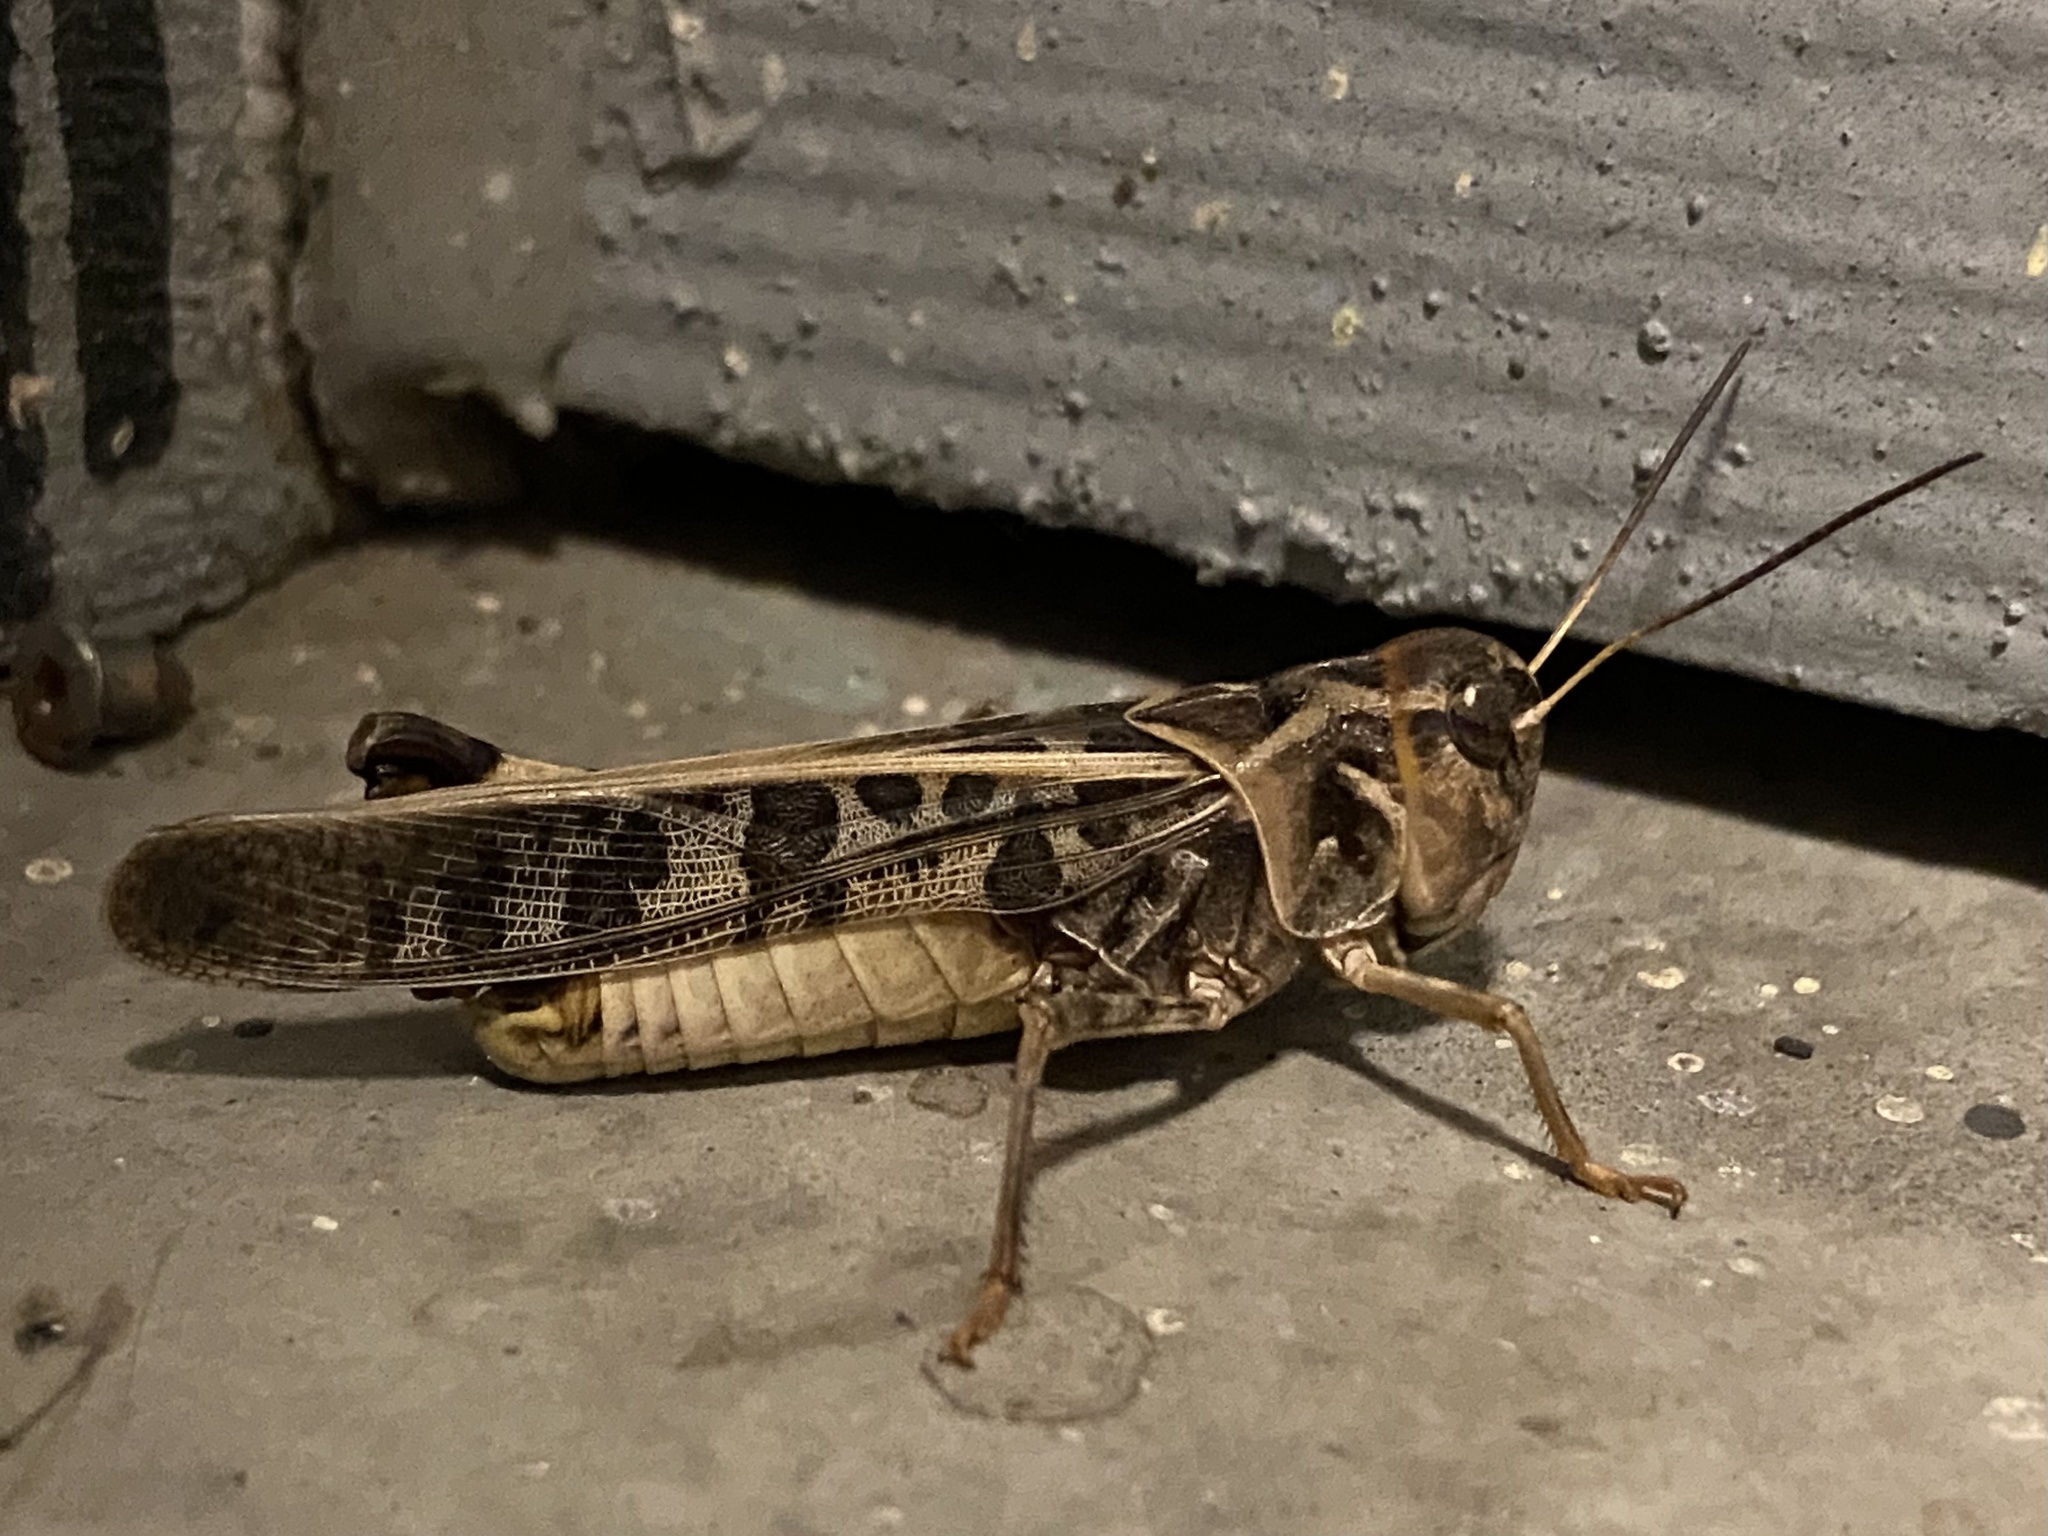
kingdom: Animalia
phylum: Arthropoda
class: Insecta
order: Orthoptera
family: Acrididae
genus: Hippiscus
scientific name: Hippiscus ocelote
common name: Wrinkled grasshopper
